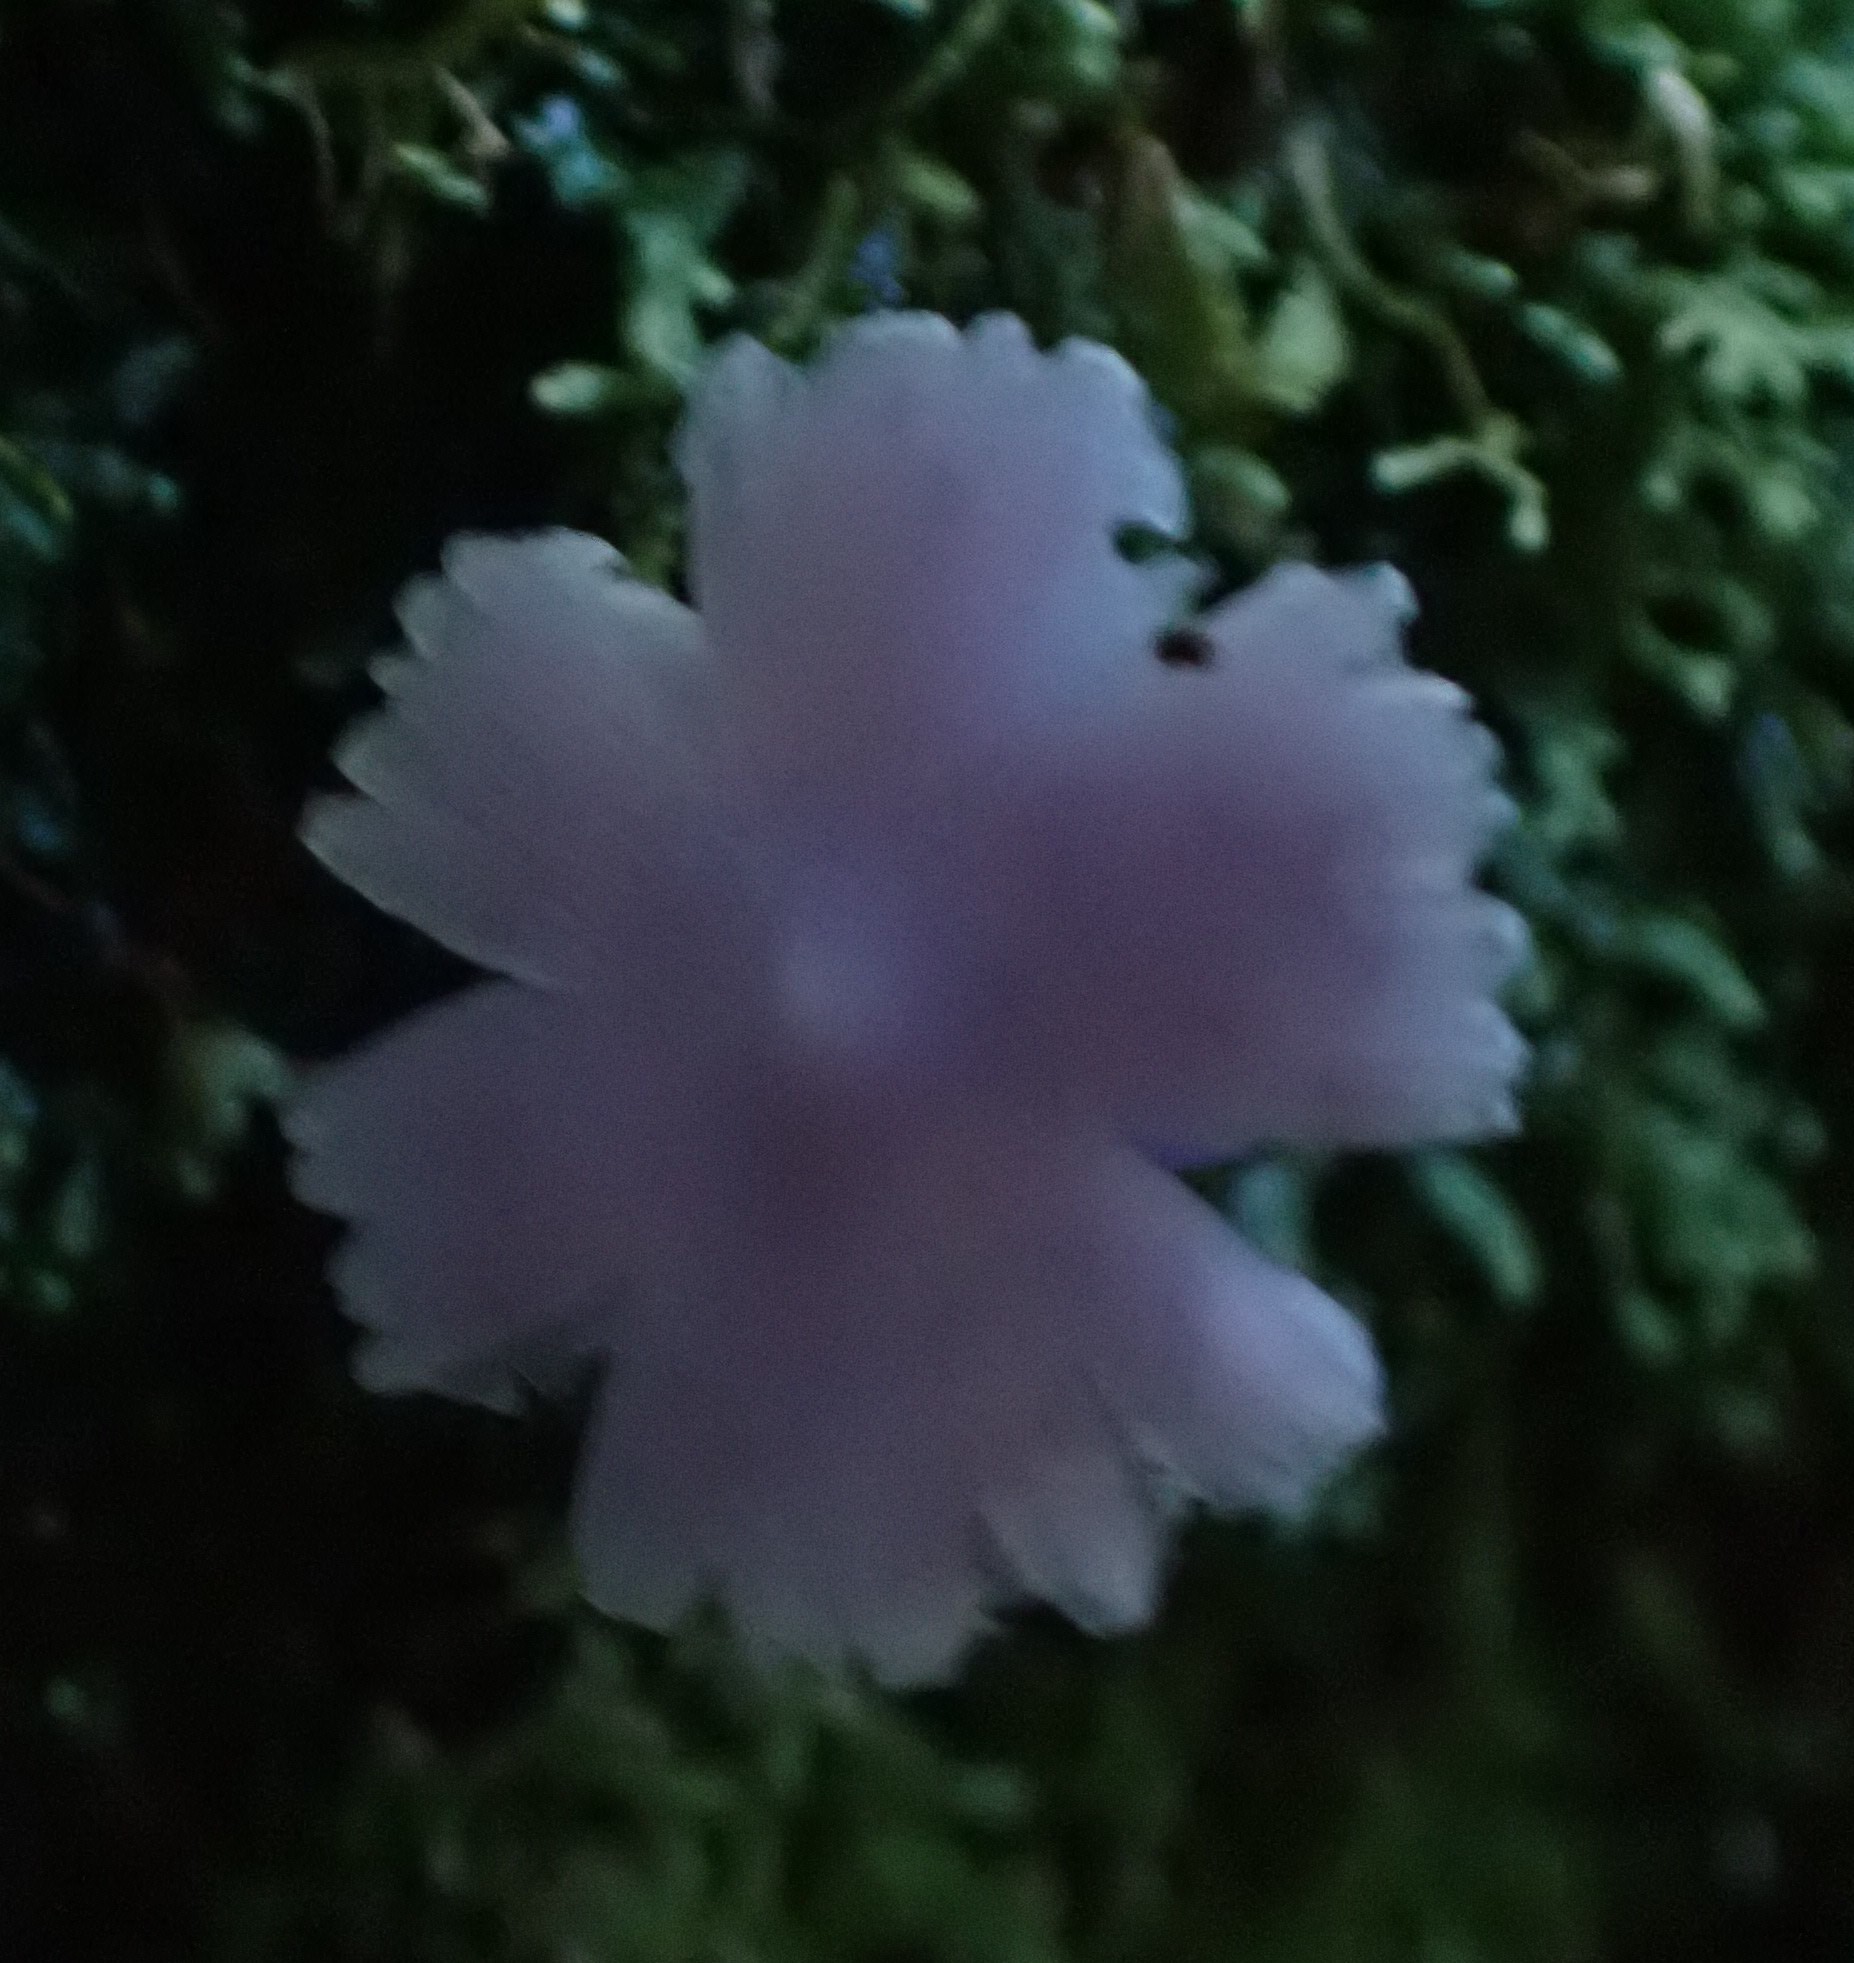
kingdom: Fungi
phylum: Basidiomycota
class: Agaricomycetes
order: Agaricales
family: Hygrophoraceae
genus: Porpolomopsis
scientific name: Porpolomopsis lewelliniae
